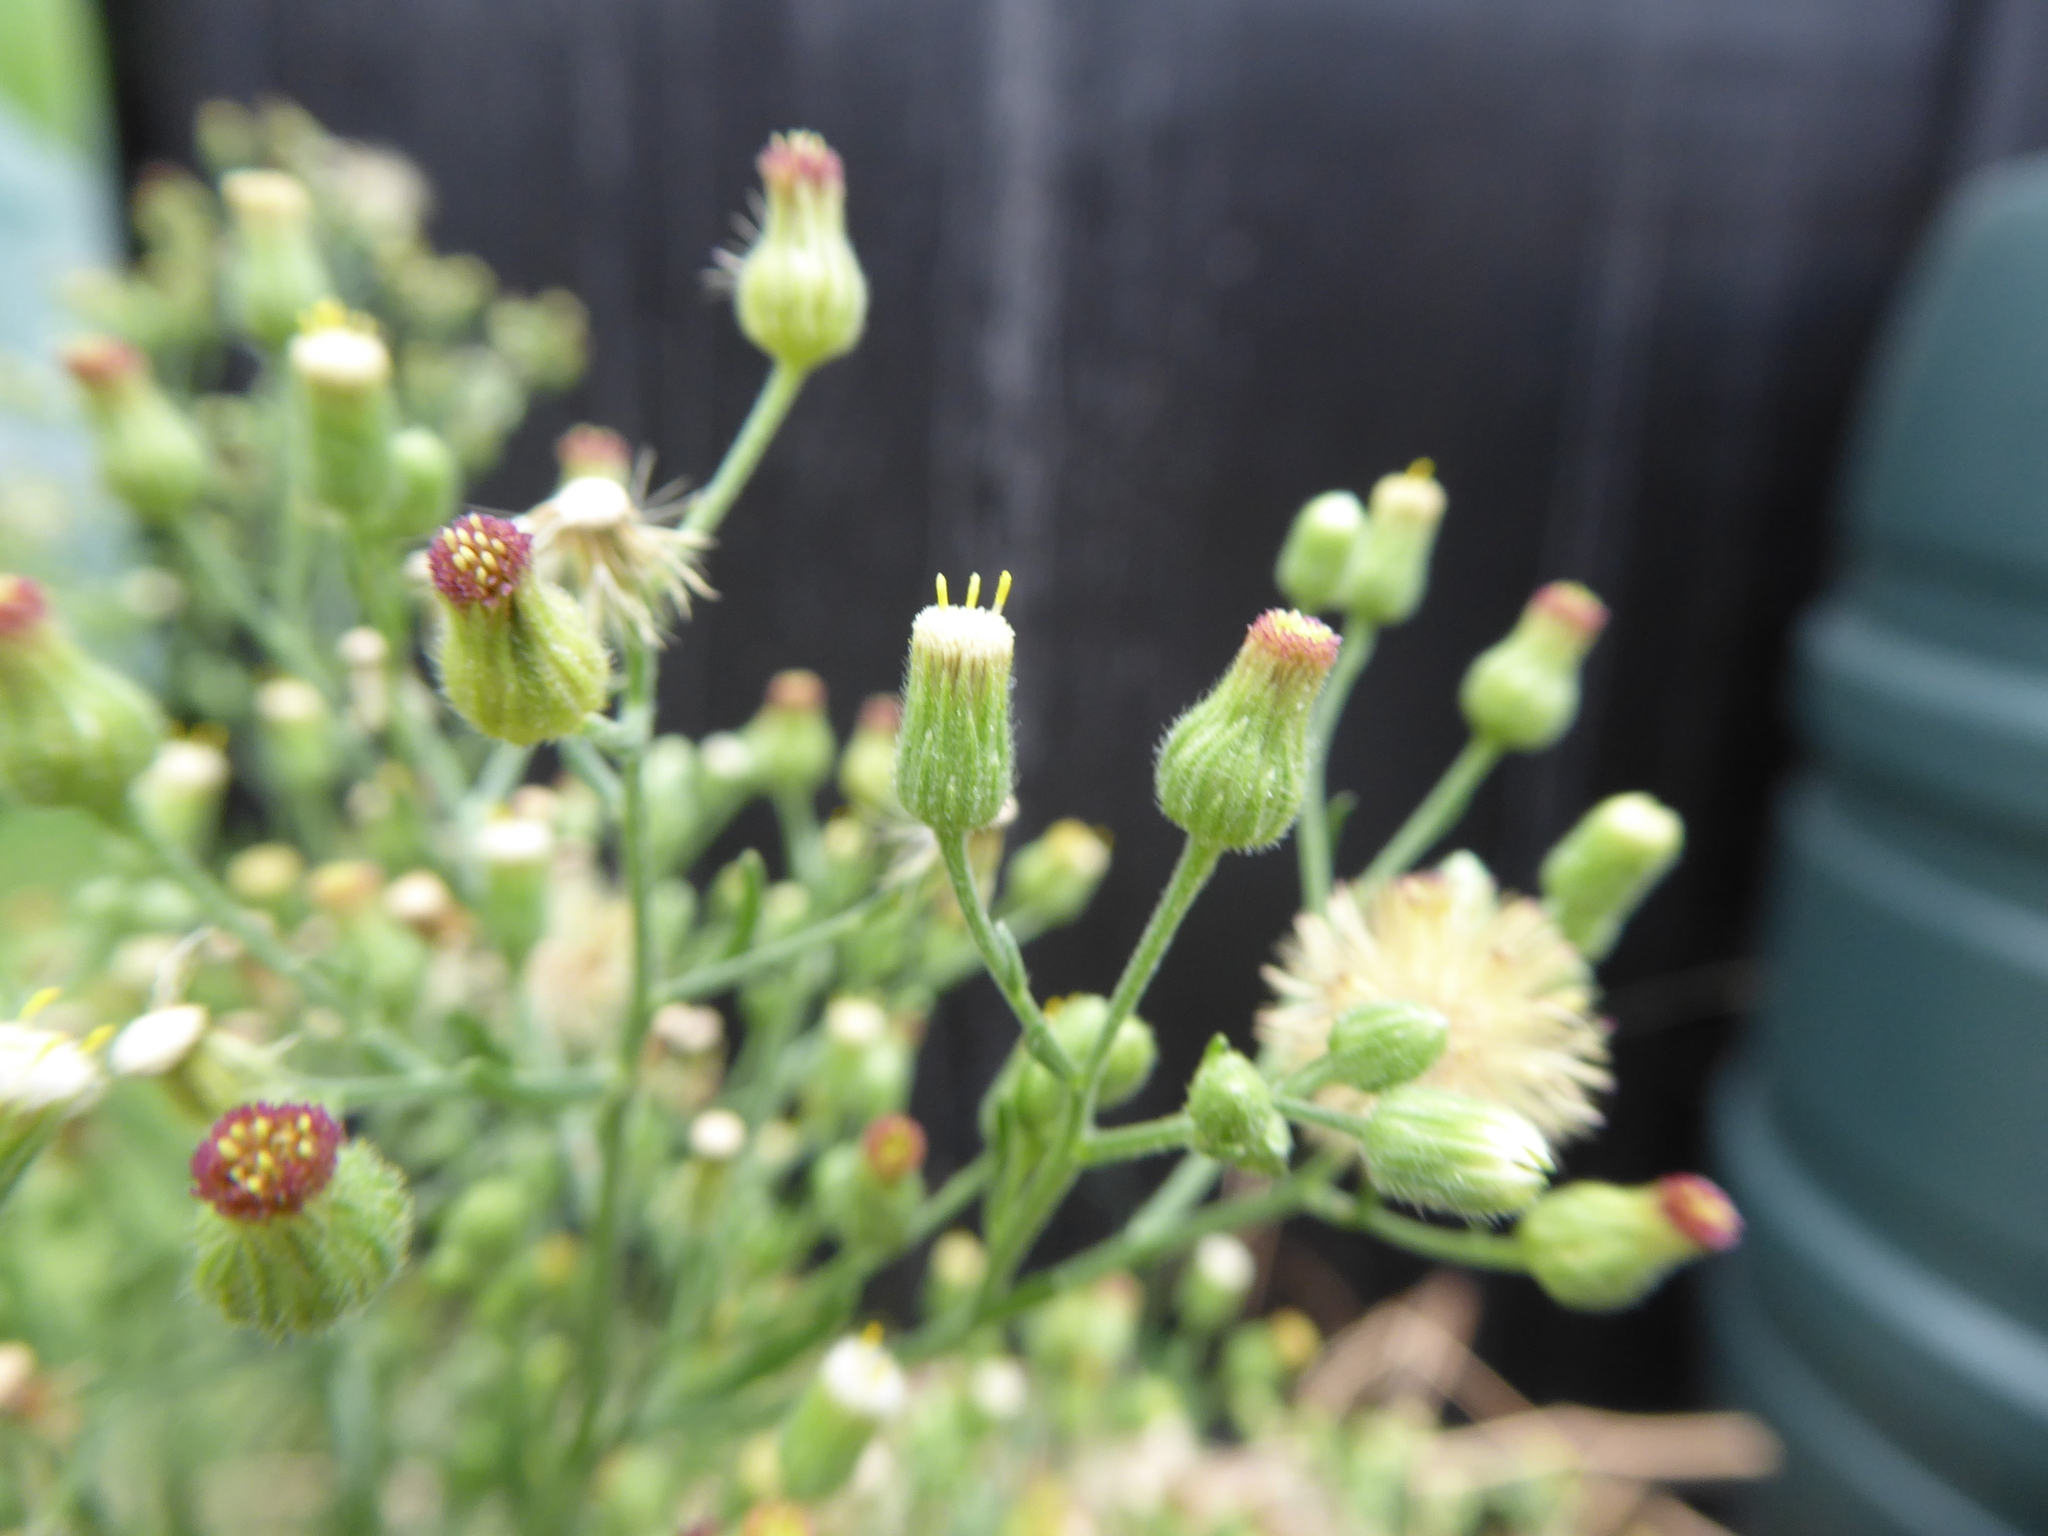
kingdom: Plantae
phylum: Tracheophyta
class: Magnoliopsida
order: Asterales
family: Asteraceae
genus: Erigeron
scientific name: Erigeron sumatrensis
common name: Daisy
